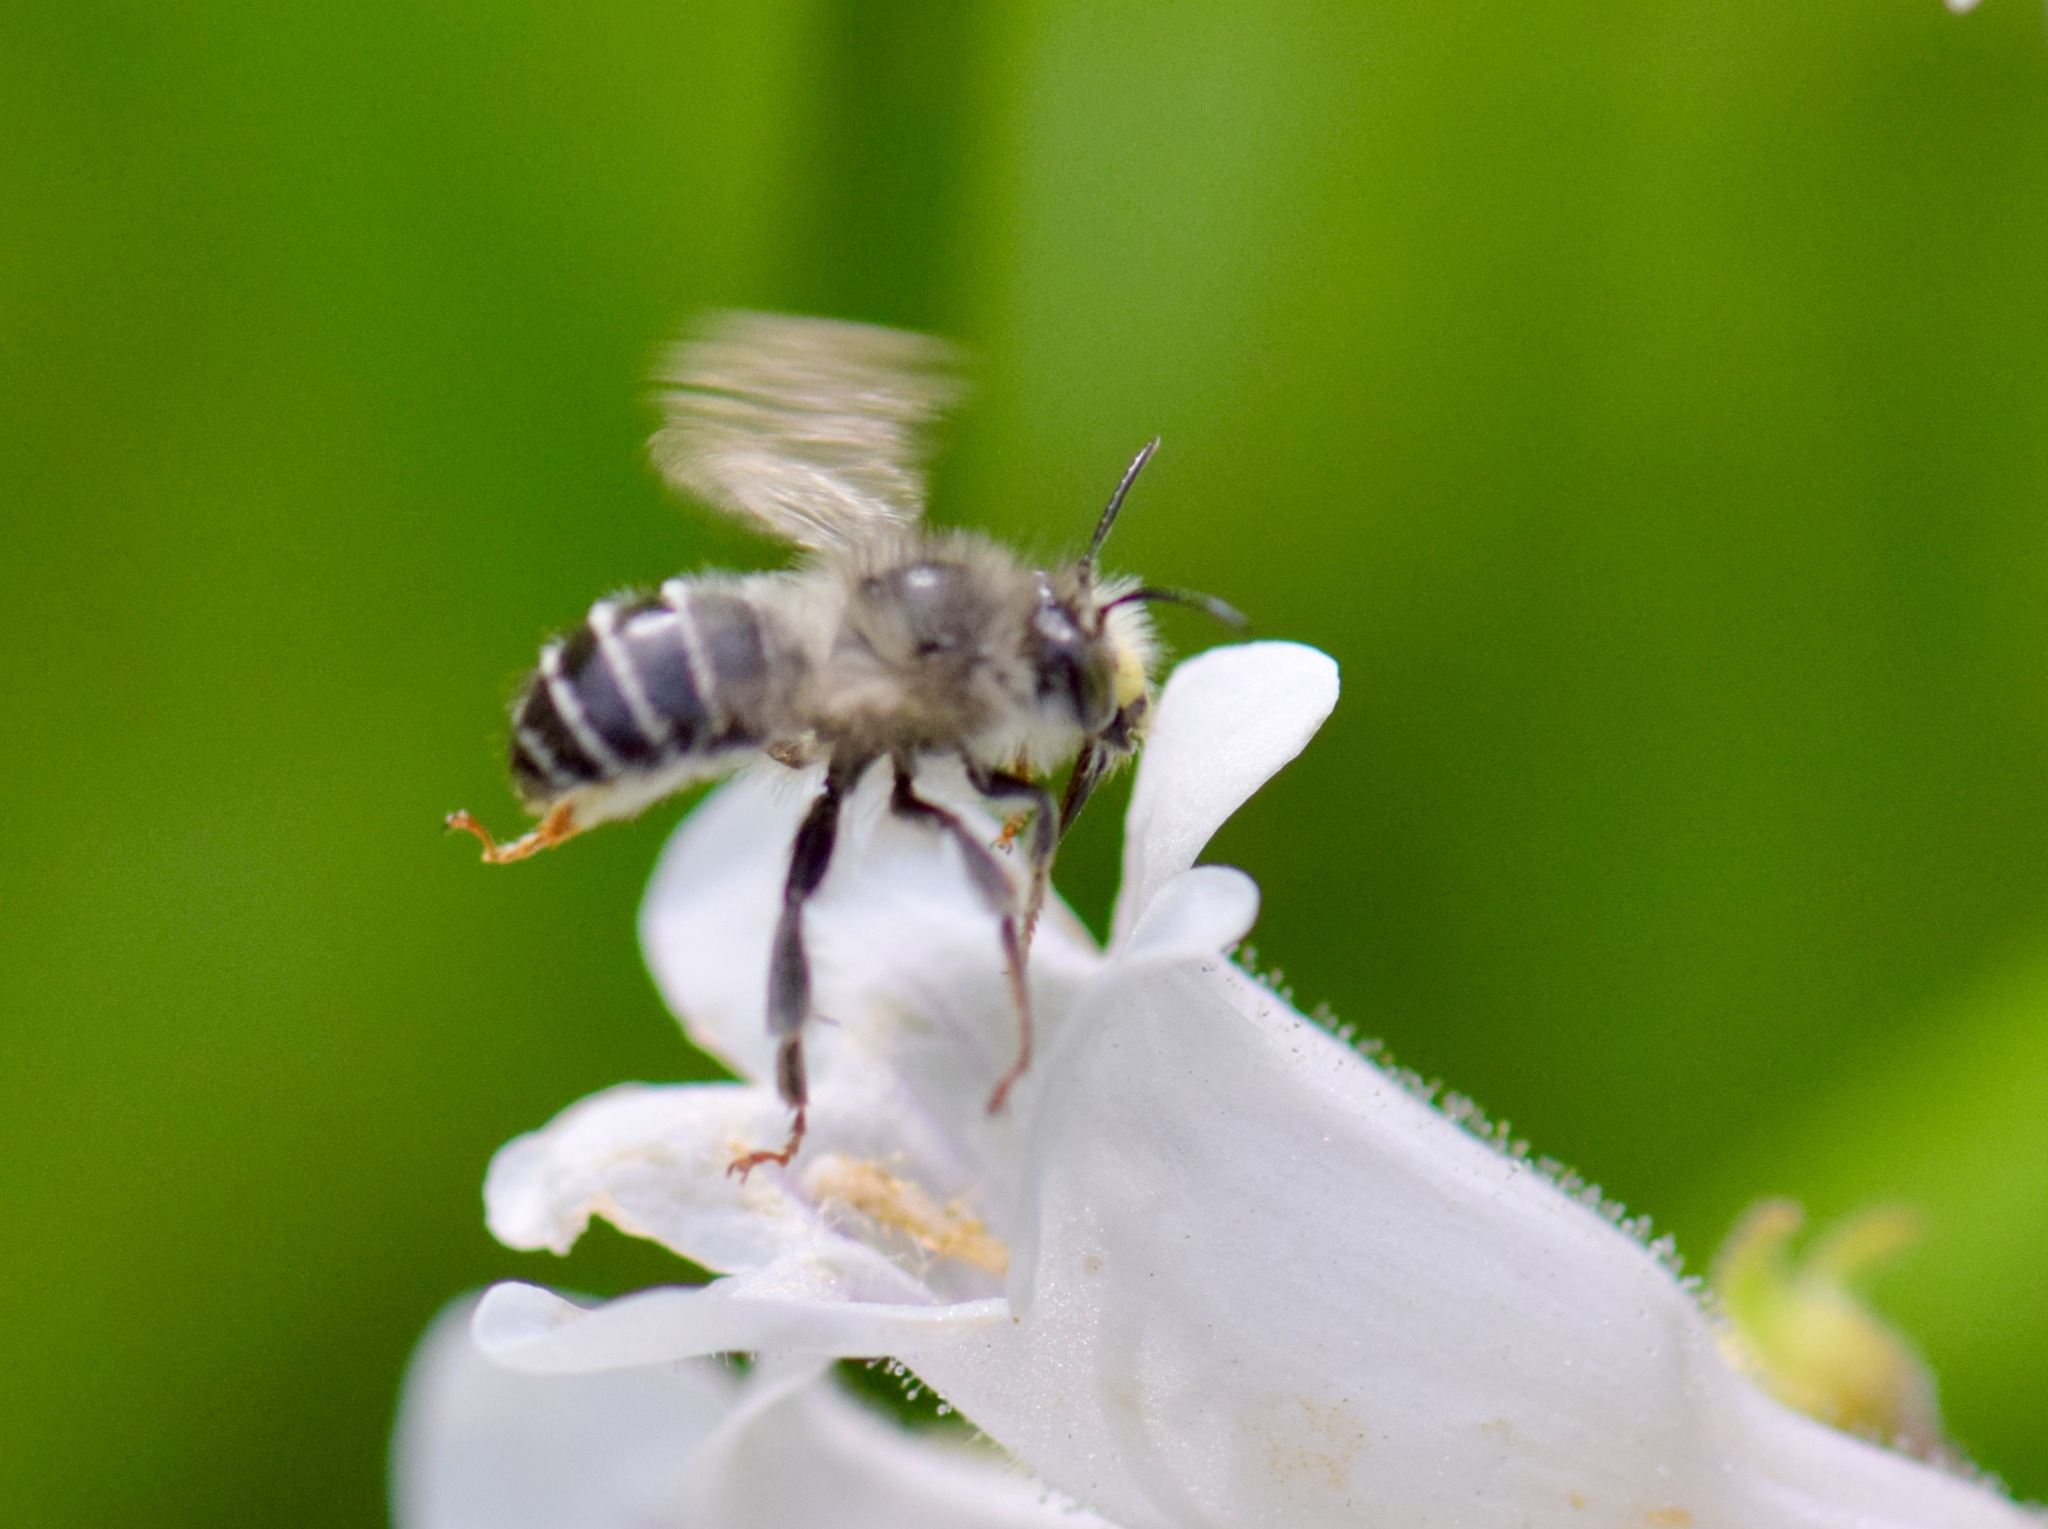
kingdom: Animalia
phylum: Arthropoda
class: Insecta
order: Hymenoptera
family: Apidae
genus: Anthophora
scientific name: Anthophora terminalis
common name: Orange-tipped wood-digger bee
